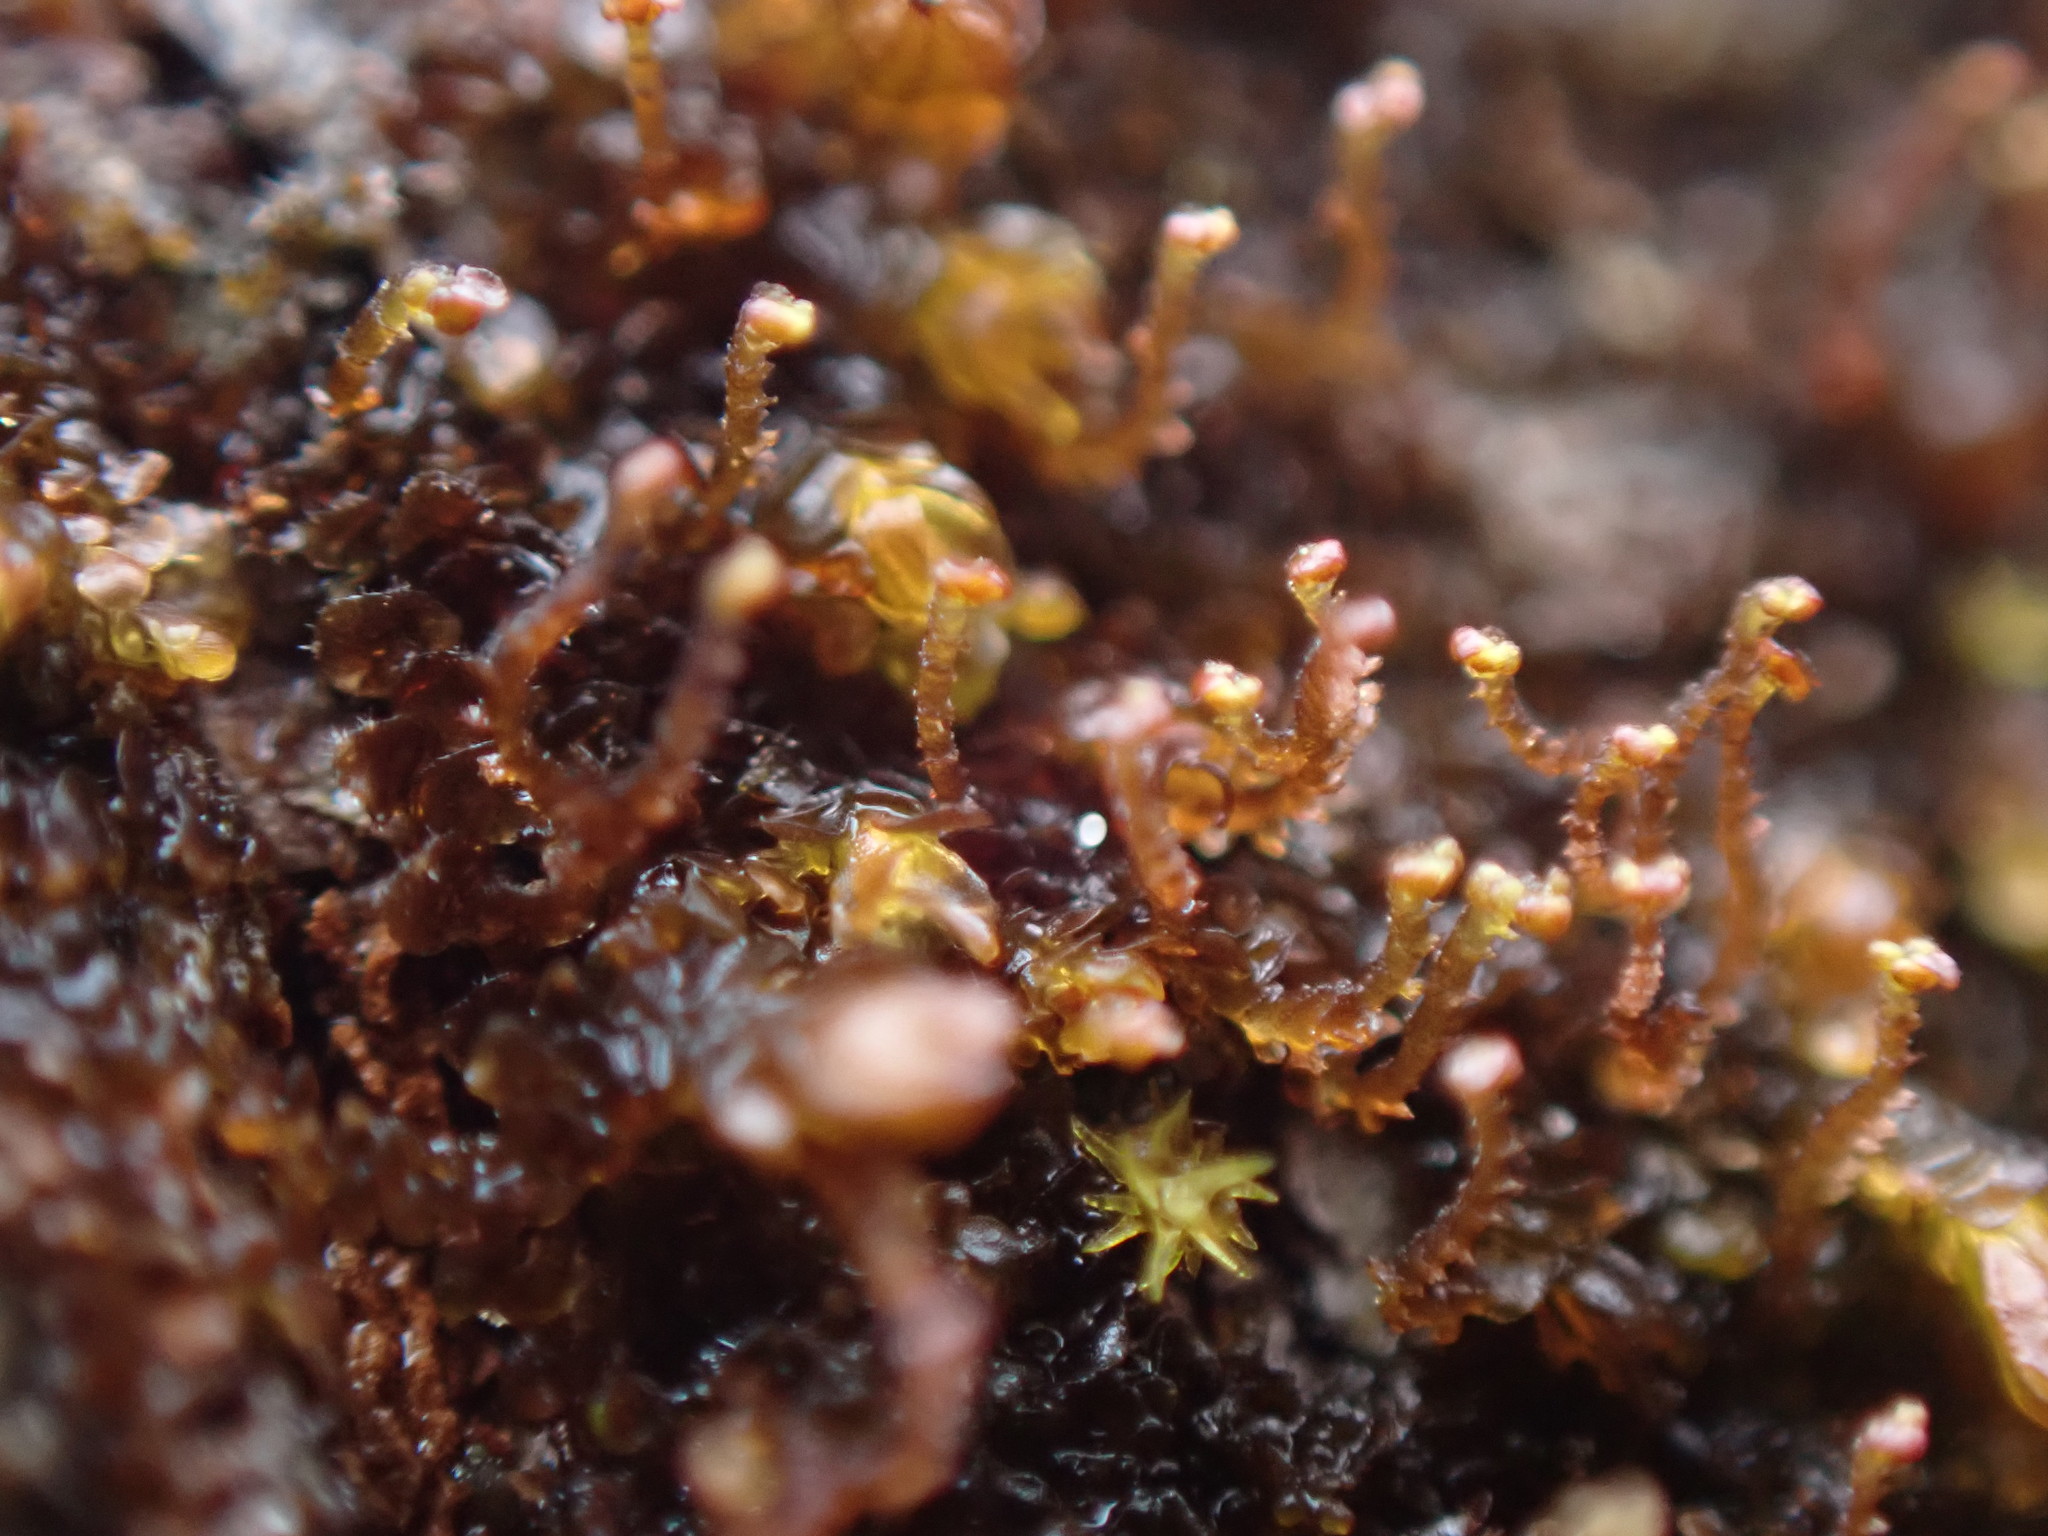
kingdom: Plantae
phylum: Marchantiophyta
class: Jungermanniopsida
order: Porellales
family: Frullaniaceae
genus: Frullania
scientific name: Frullania bolanderi
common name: Bolander s scalewort
